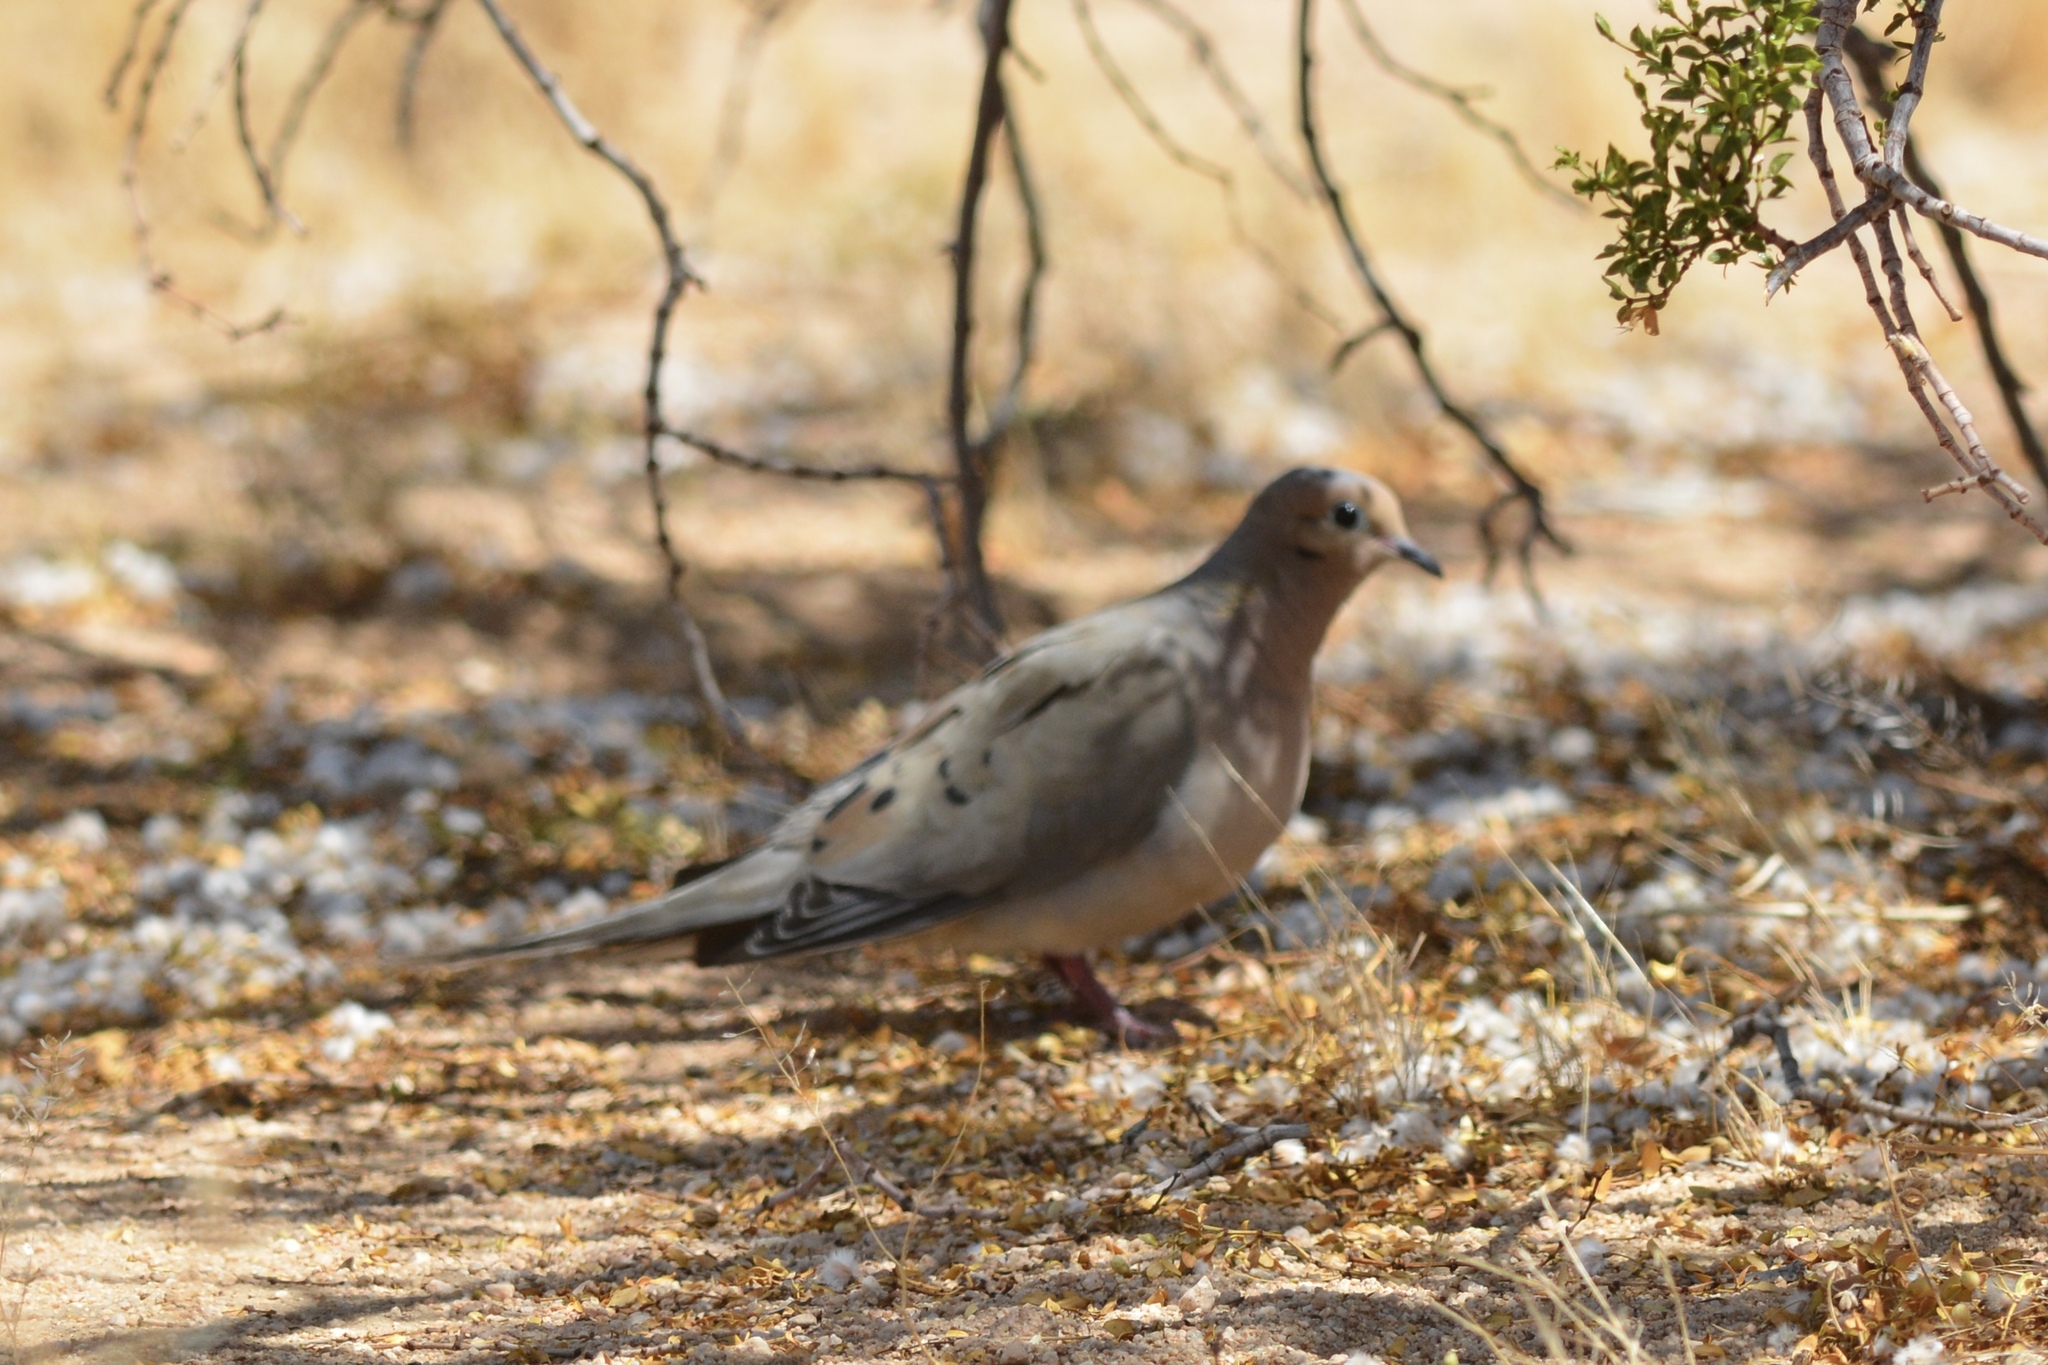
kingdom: Animalia
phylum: Chordata
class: Aves
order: Columbiformes
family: Columbidae
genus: Zenaida
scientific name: Zenaida macroura
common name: Mourning dove
